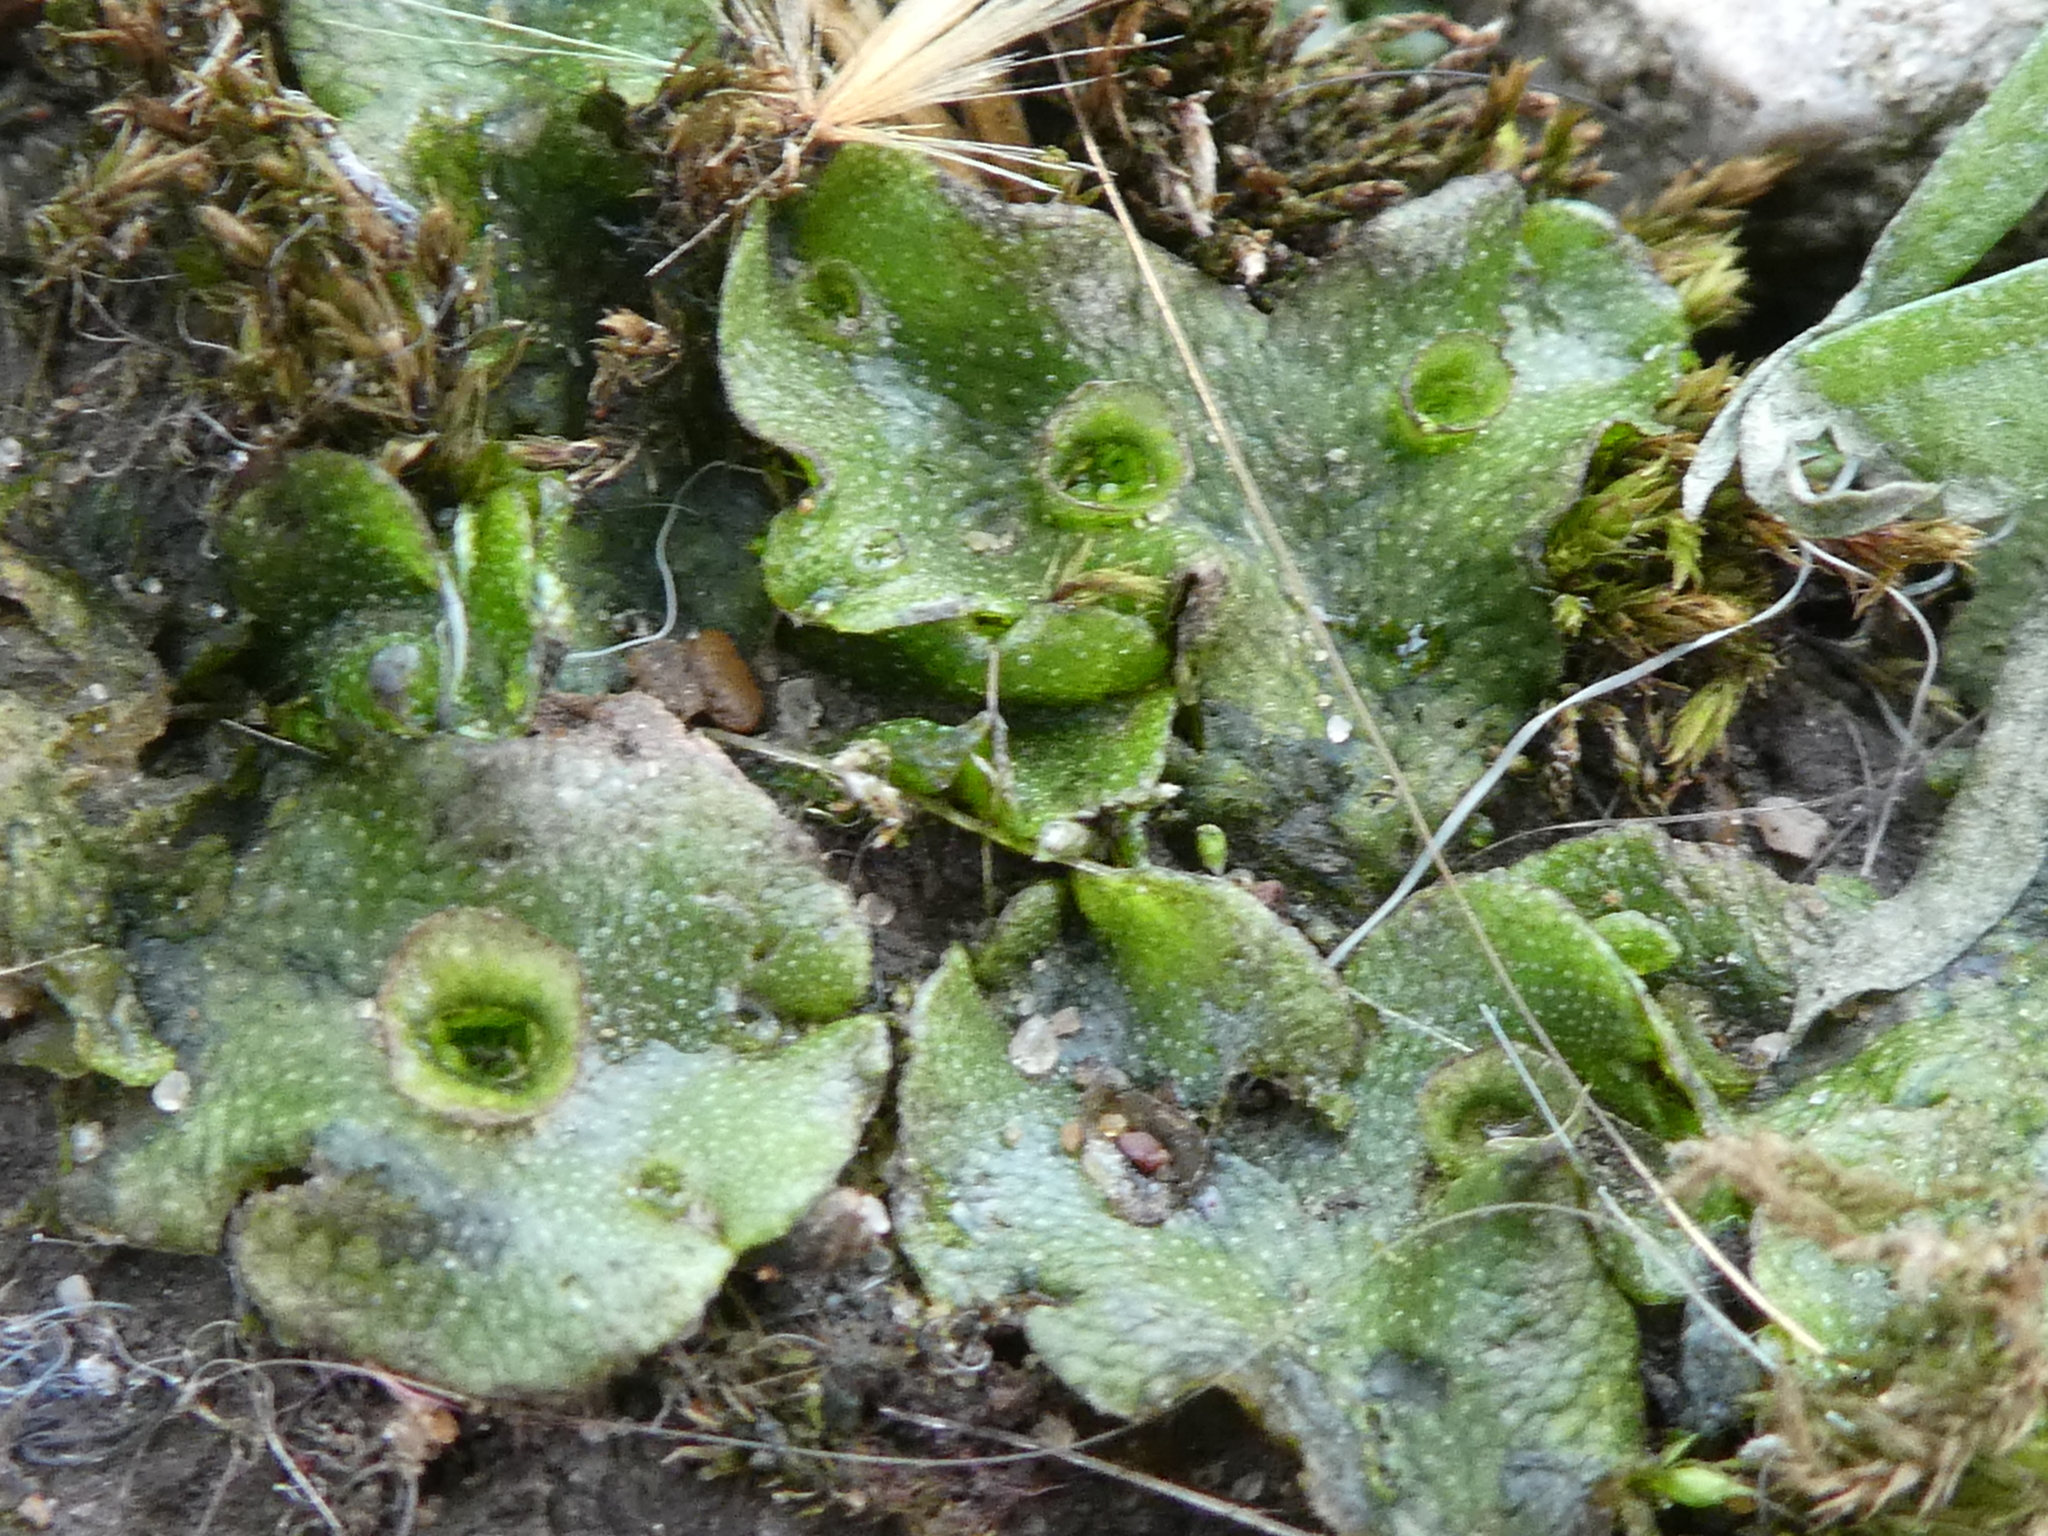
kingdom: Plantae
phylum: Marchantiophyta
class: Marchantiopsida
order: Marchantiales
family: Marchantiaceae
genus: Marchantia
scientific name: Marchantia polymorpha
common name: Common liverwort
